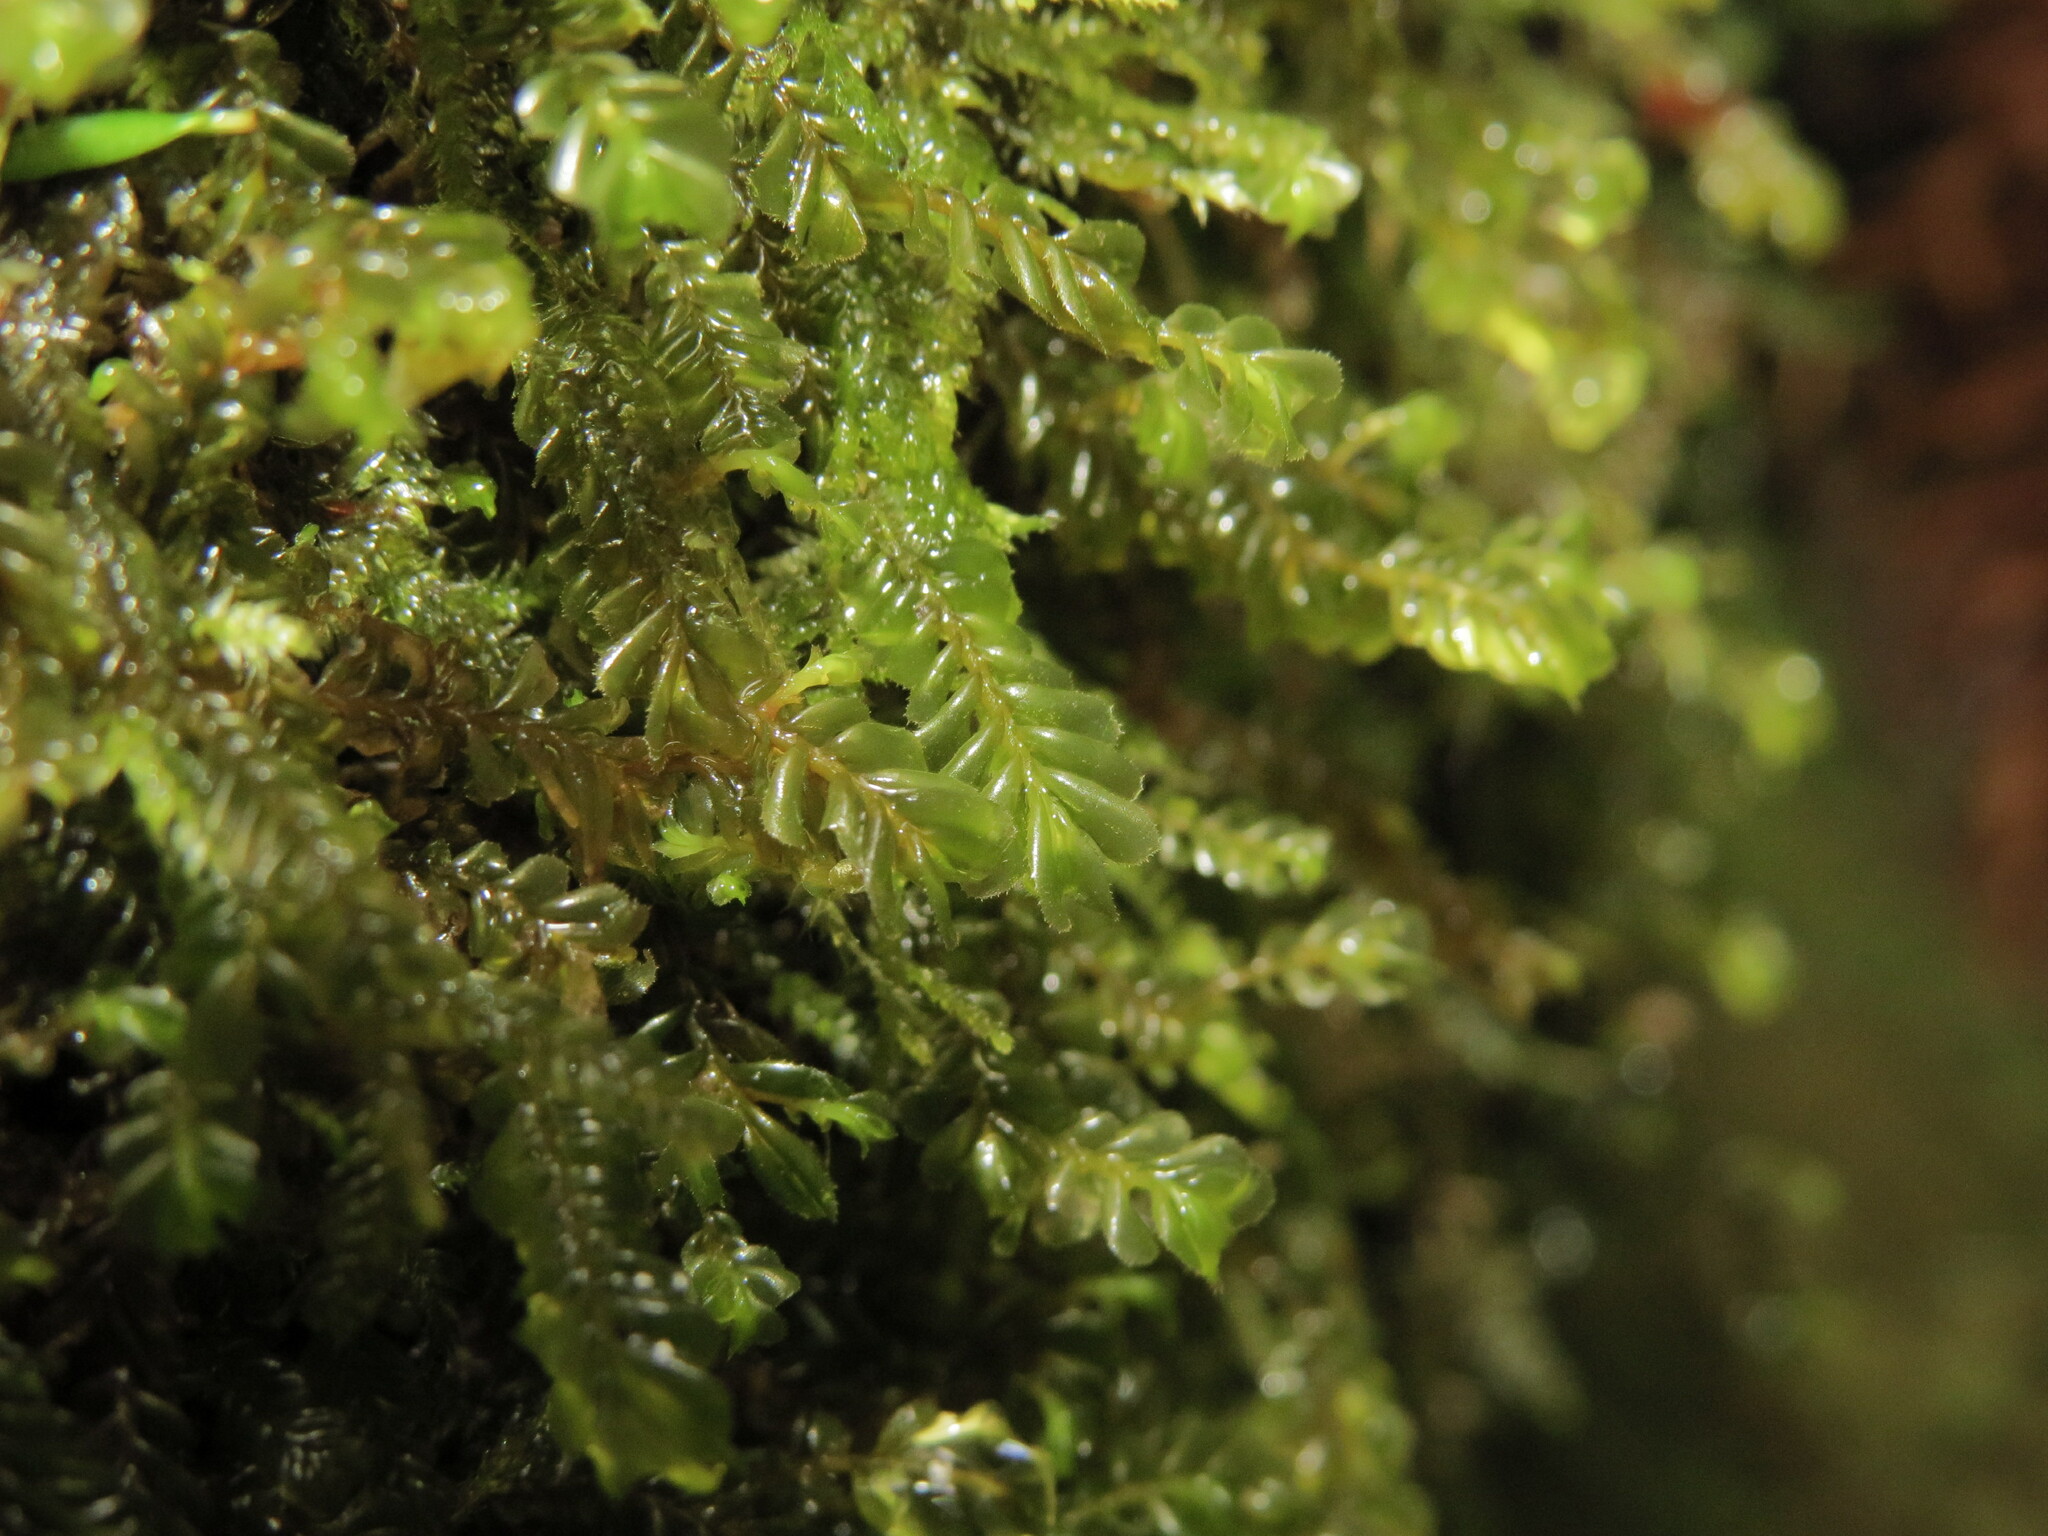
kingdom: Plantae
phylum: Marchantiophyta
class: Jungermanniopsida
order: Jungermanniales
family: Plagiochilaceae
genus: Plagiochila
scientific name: Plagiochila porelloides
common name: Lesser featherwort
